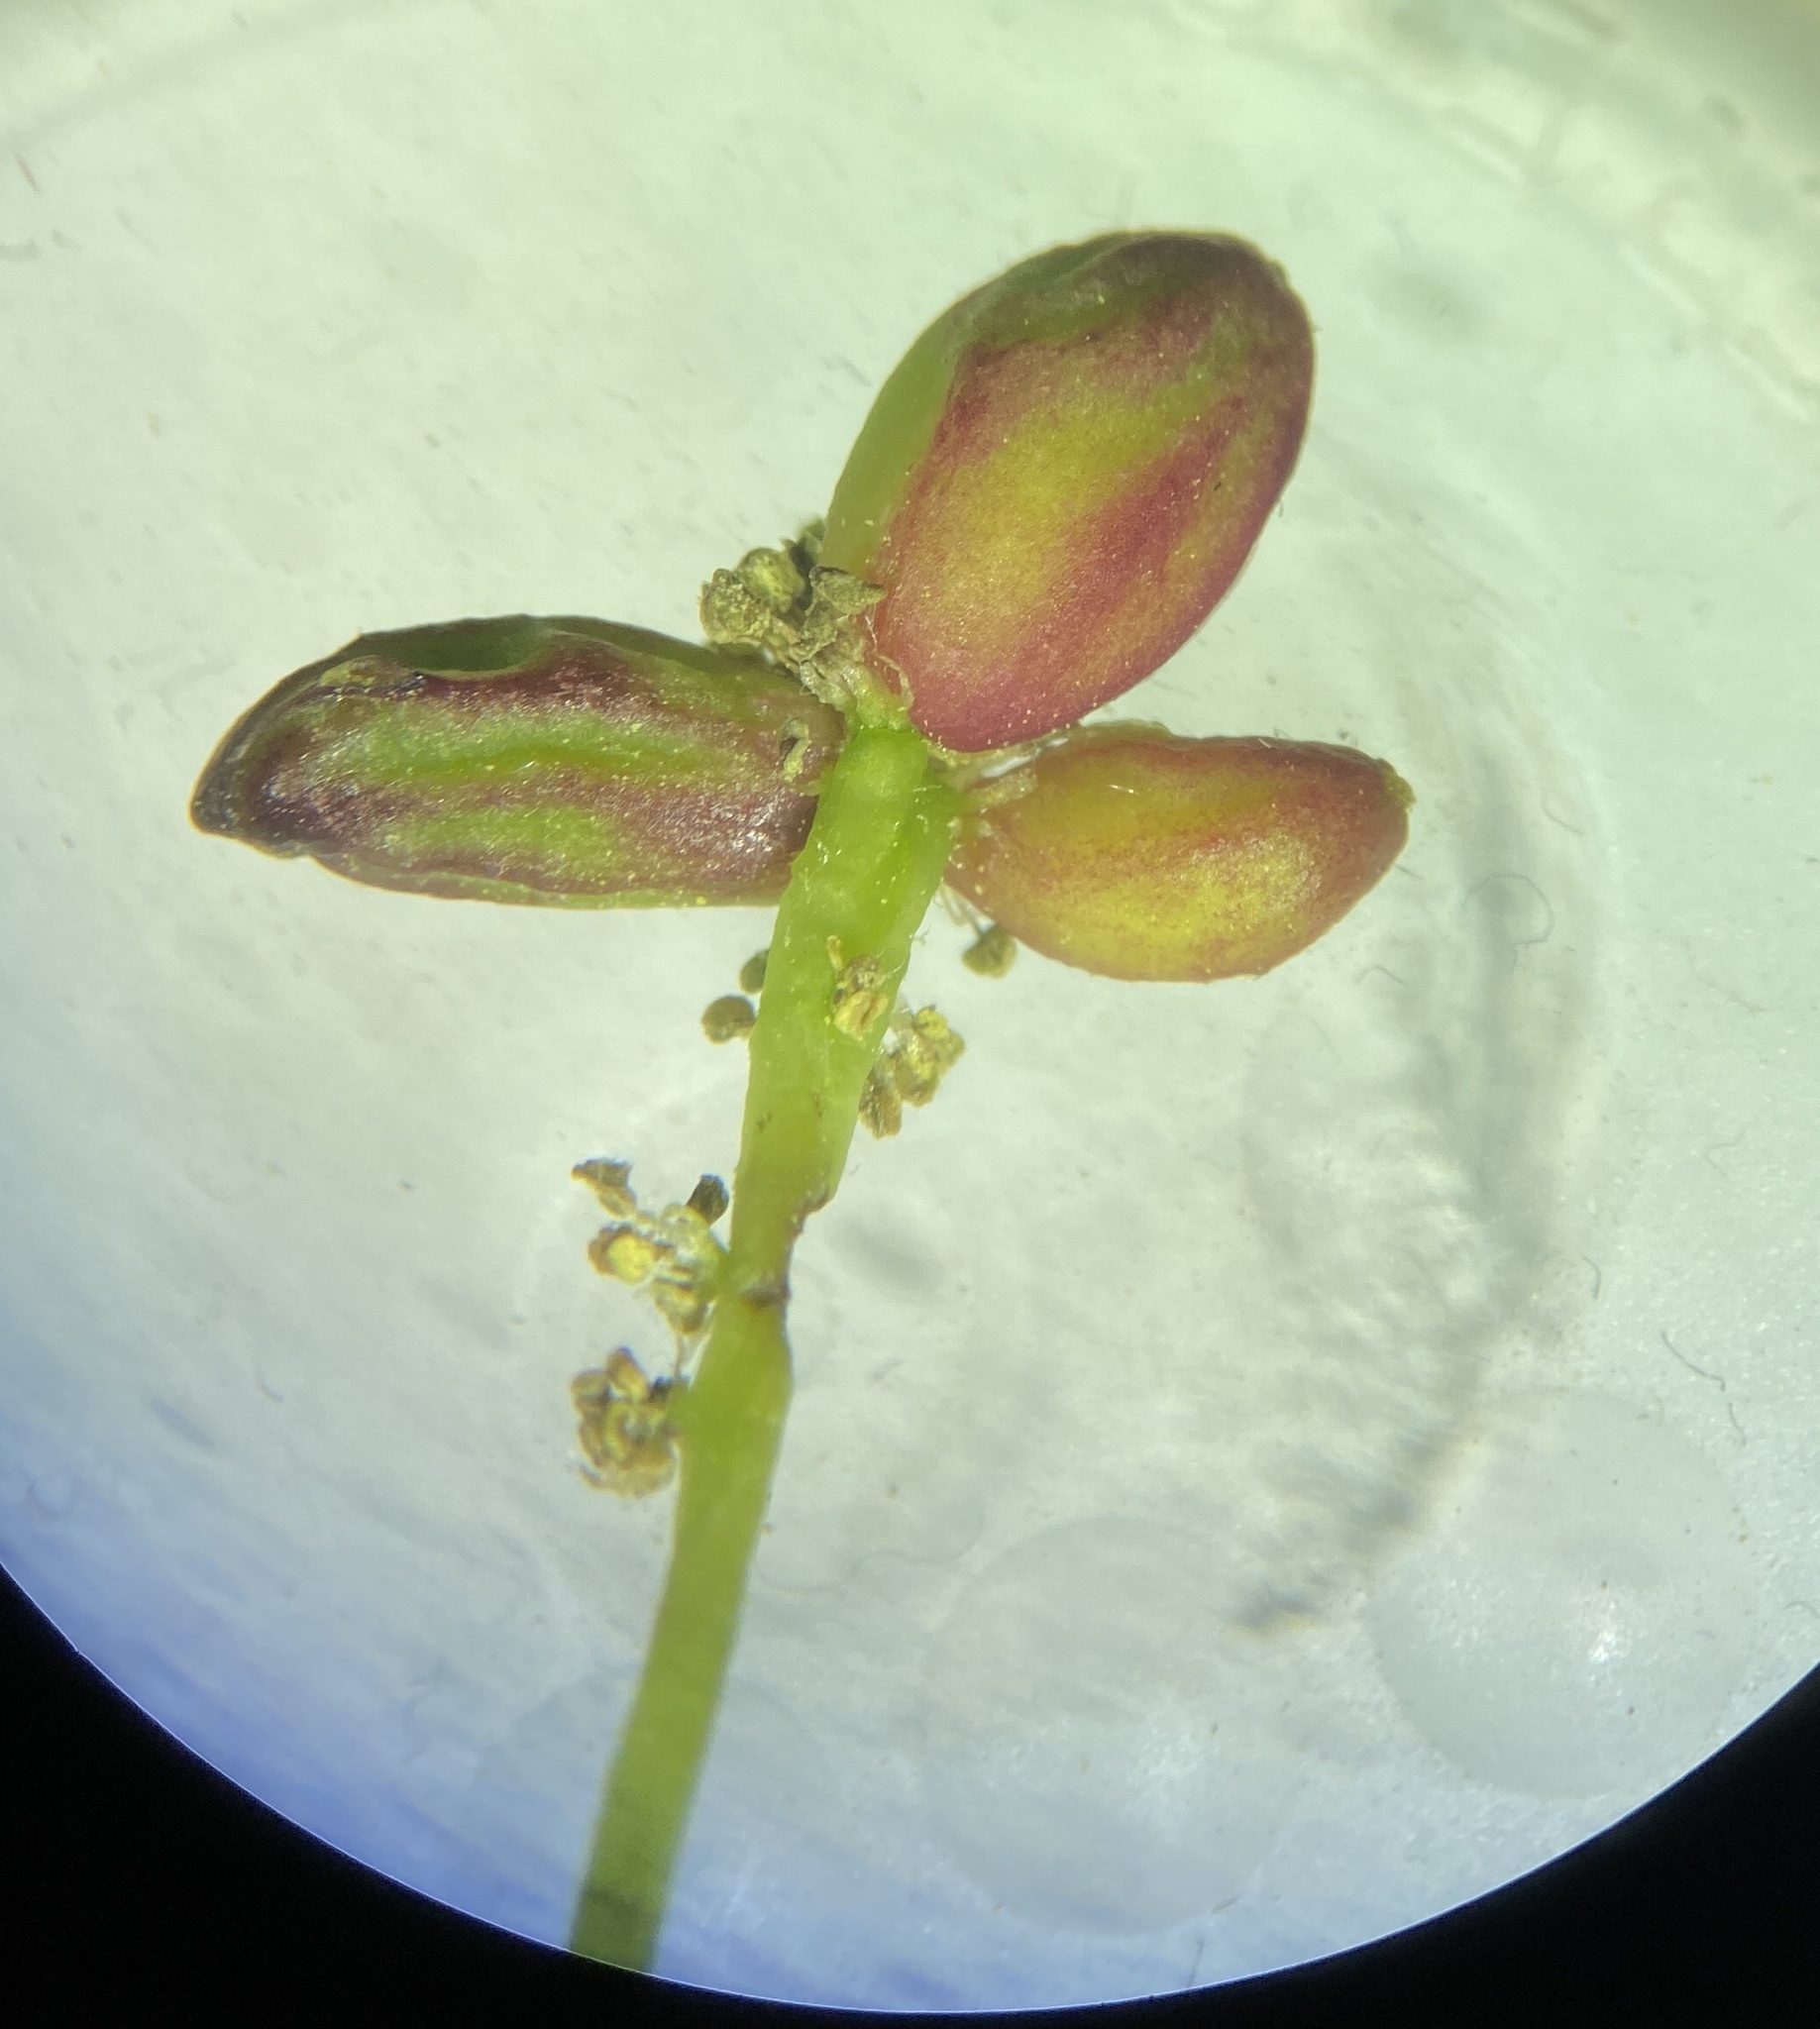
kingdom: Animalia
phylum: Arthropoda
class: Insecta
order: Hymenoptera
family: Cynipidae
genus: Andricus
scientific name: Andricus quadrilineatus
